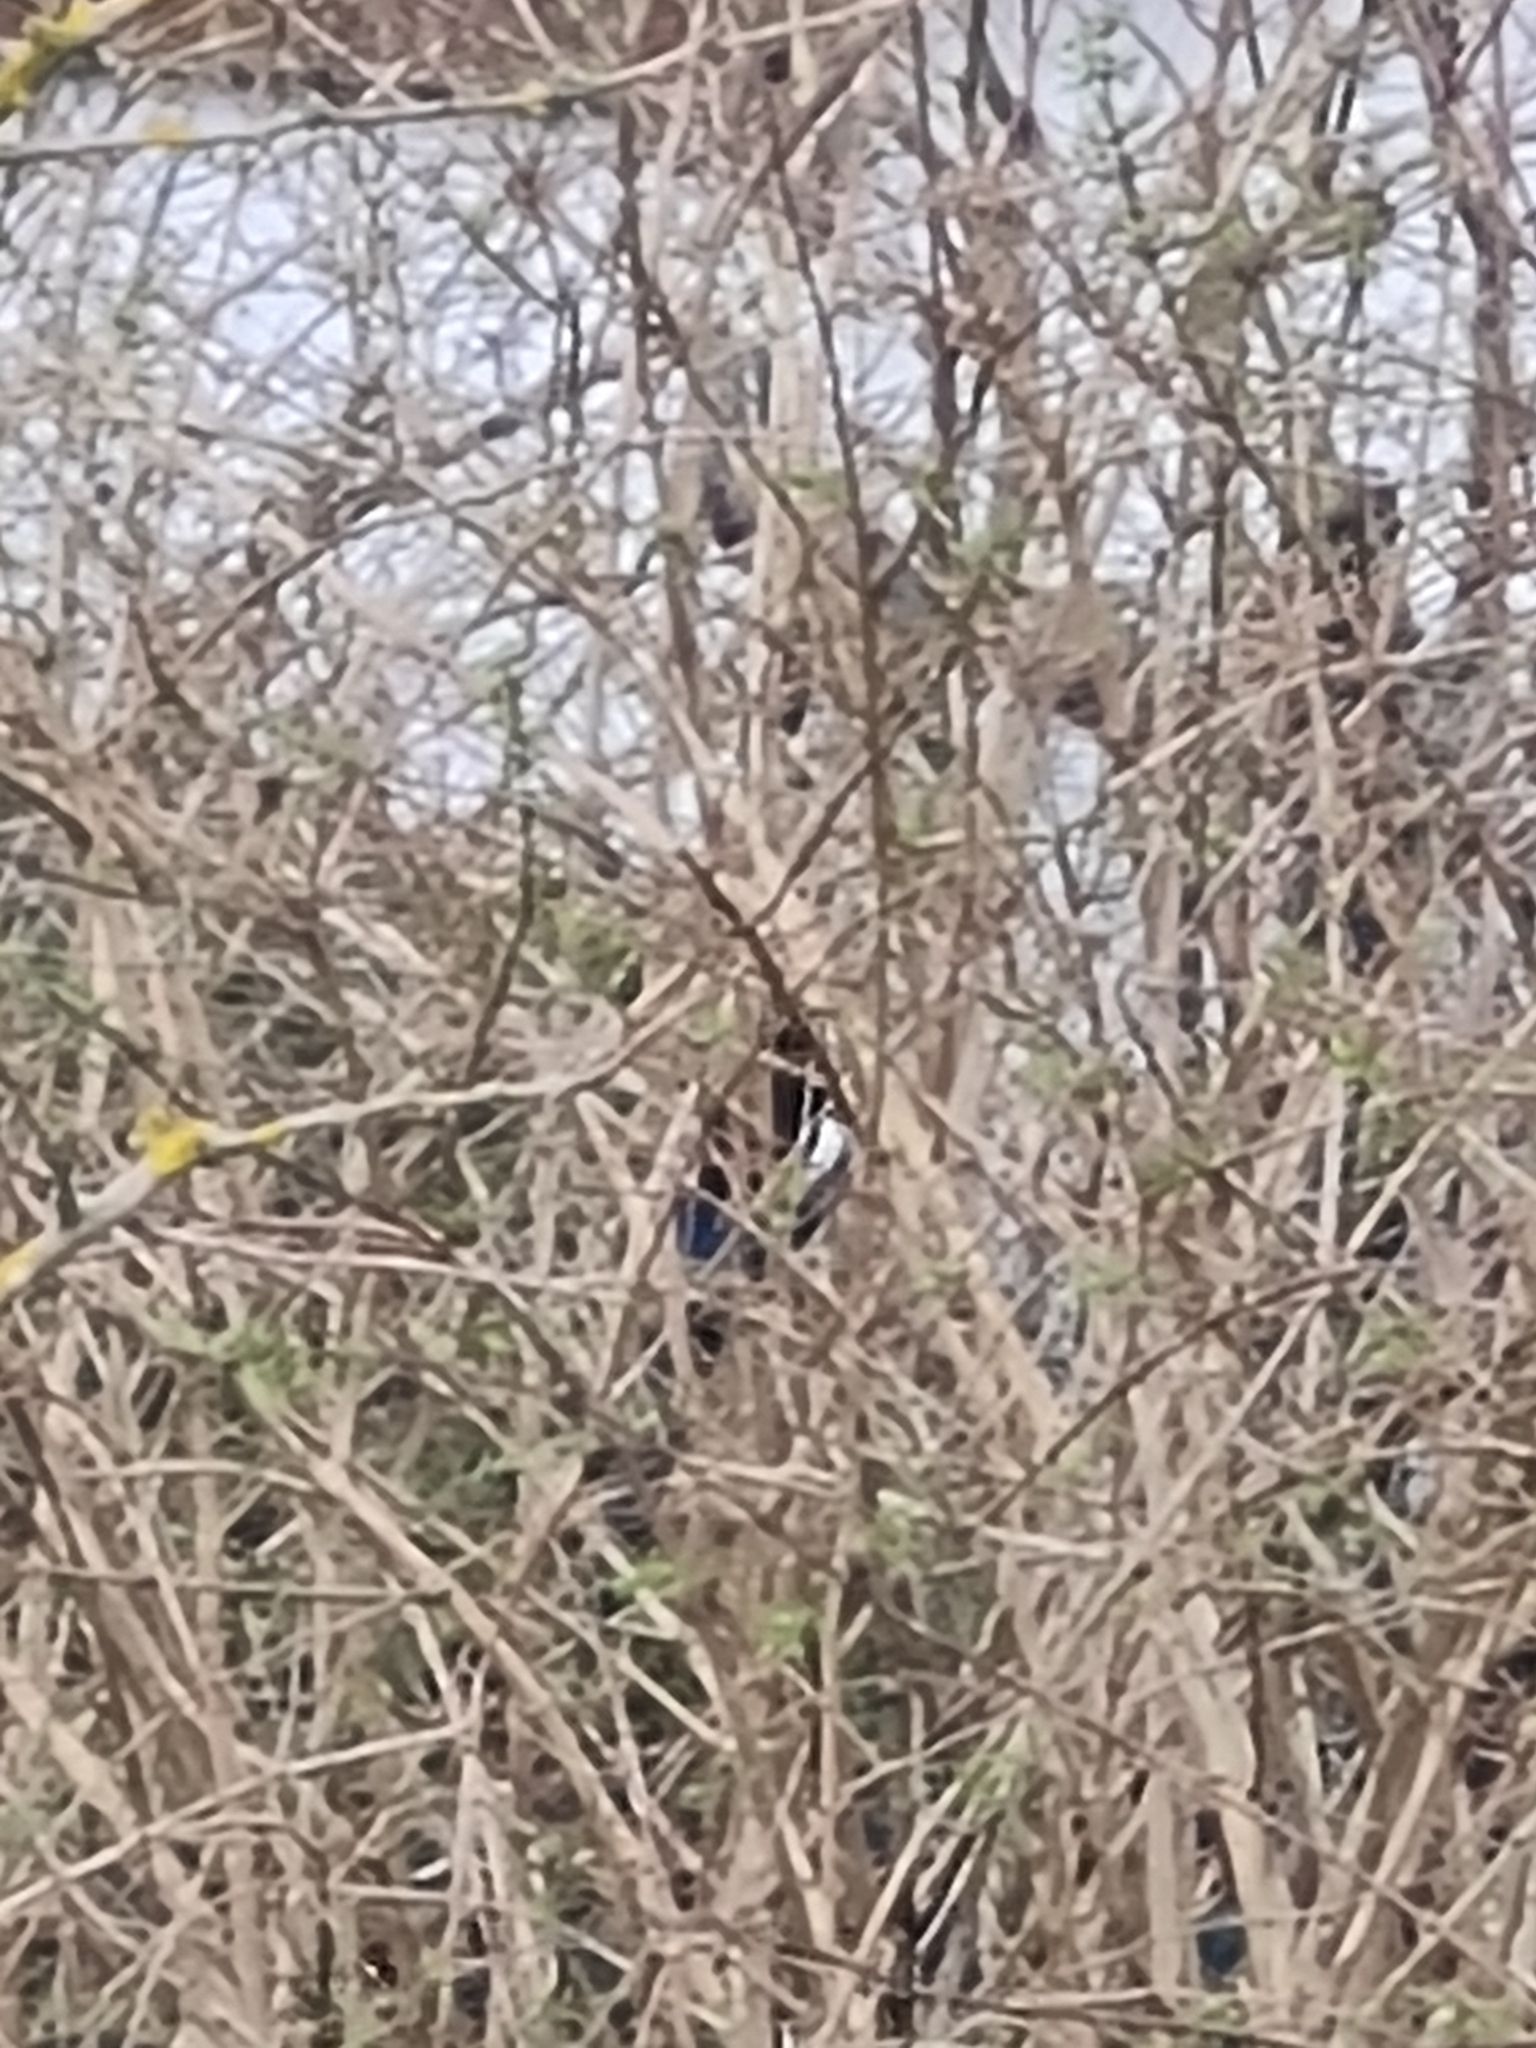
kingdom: Animalia
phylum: Chordata
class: Aves
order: Passeriformes
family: Corvidae
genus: Pica
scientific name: Pica pica
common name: Eurasian magpie
